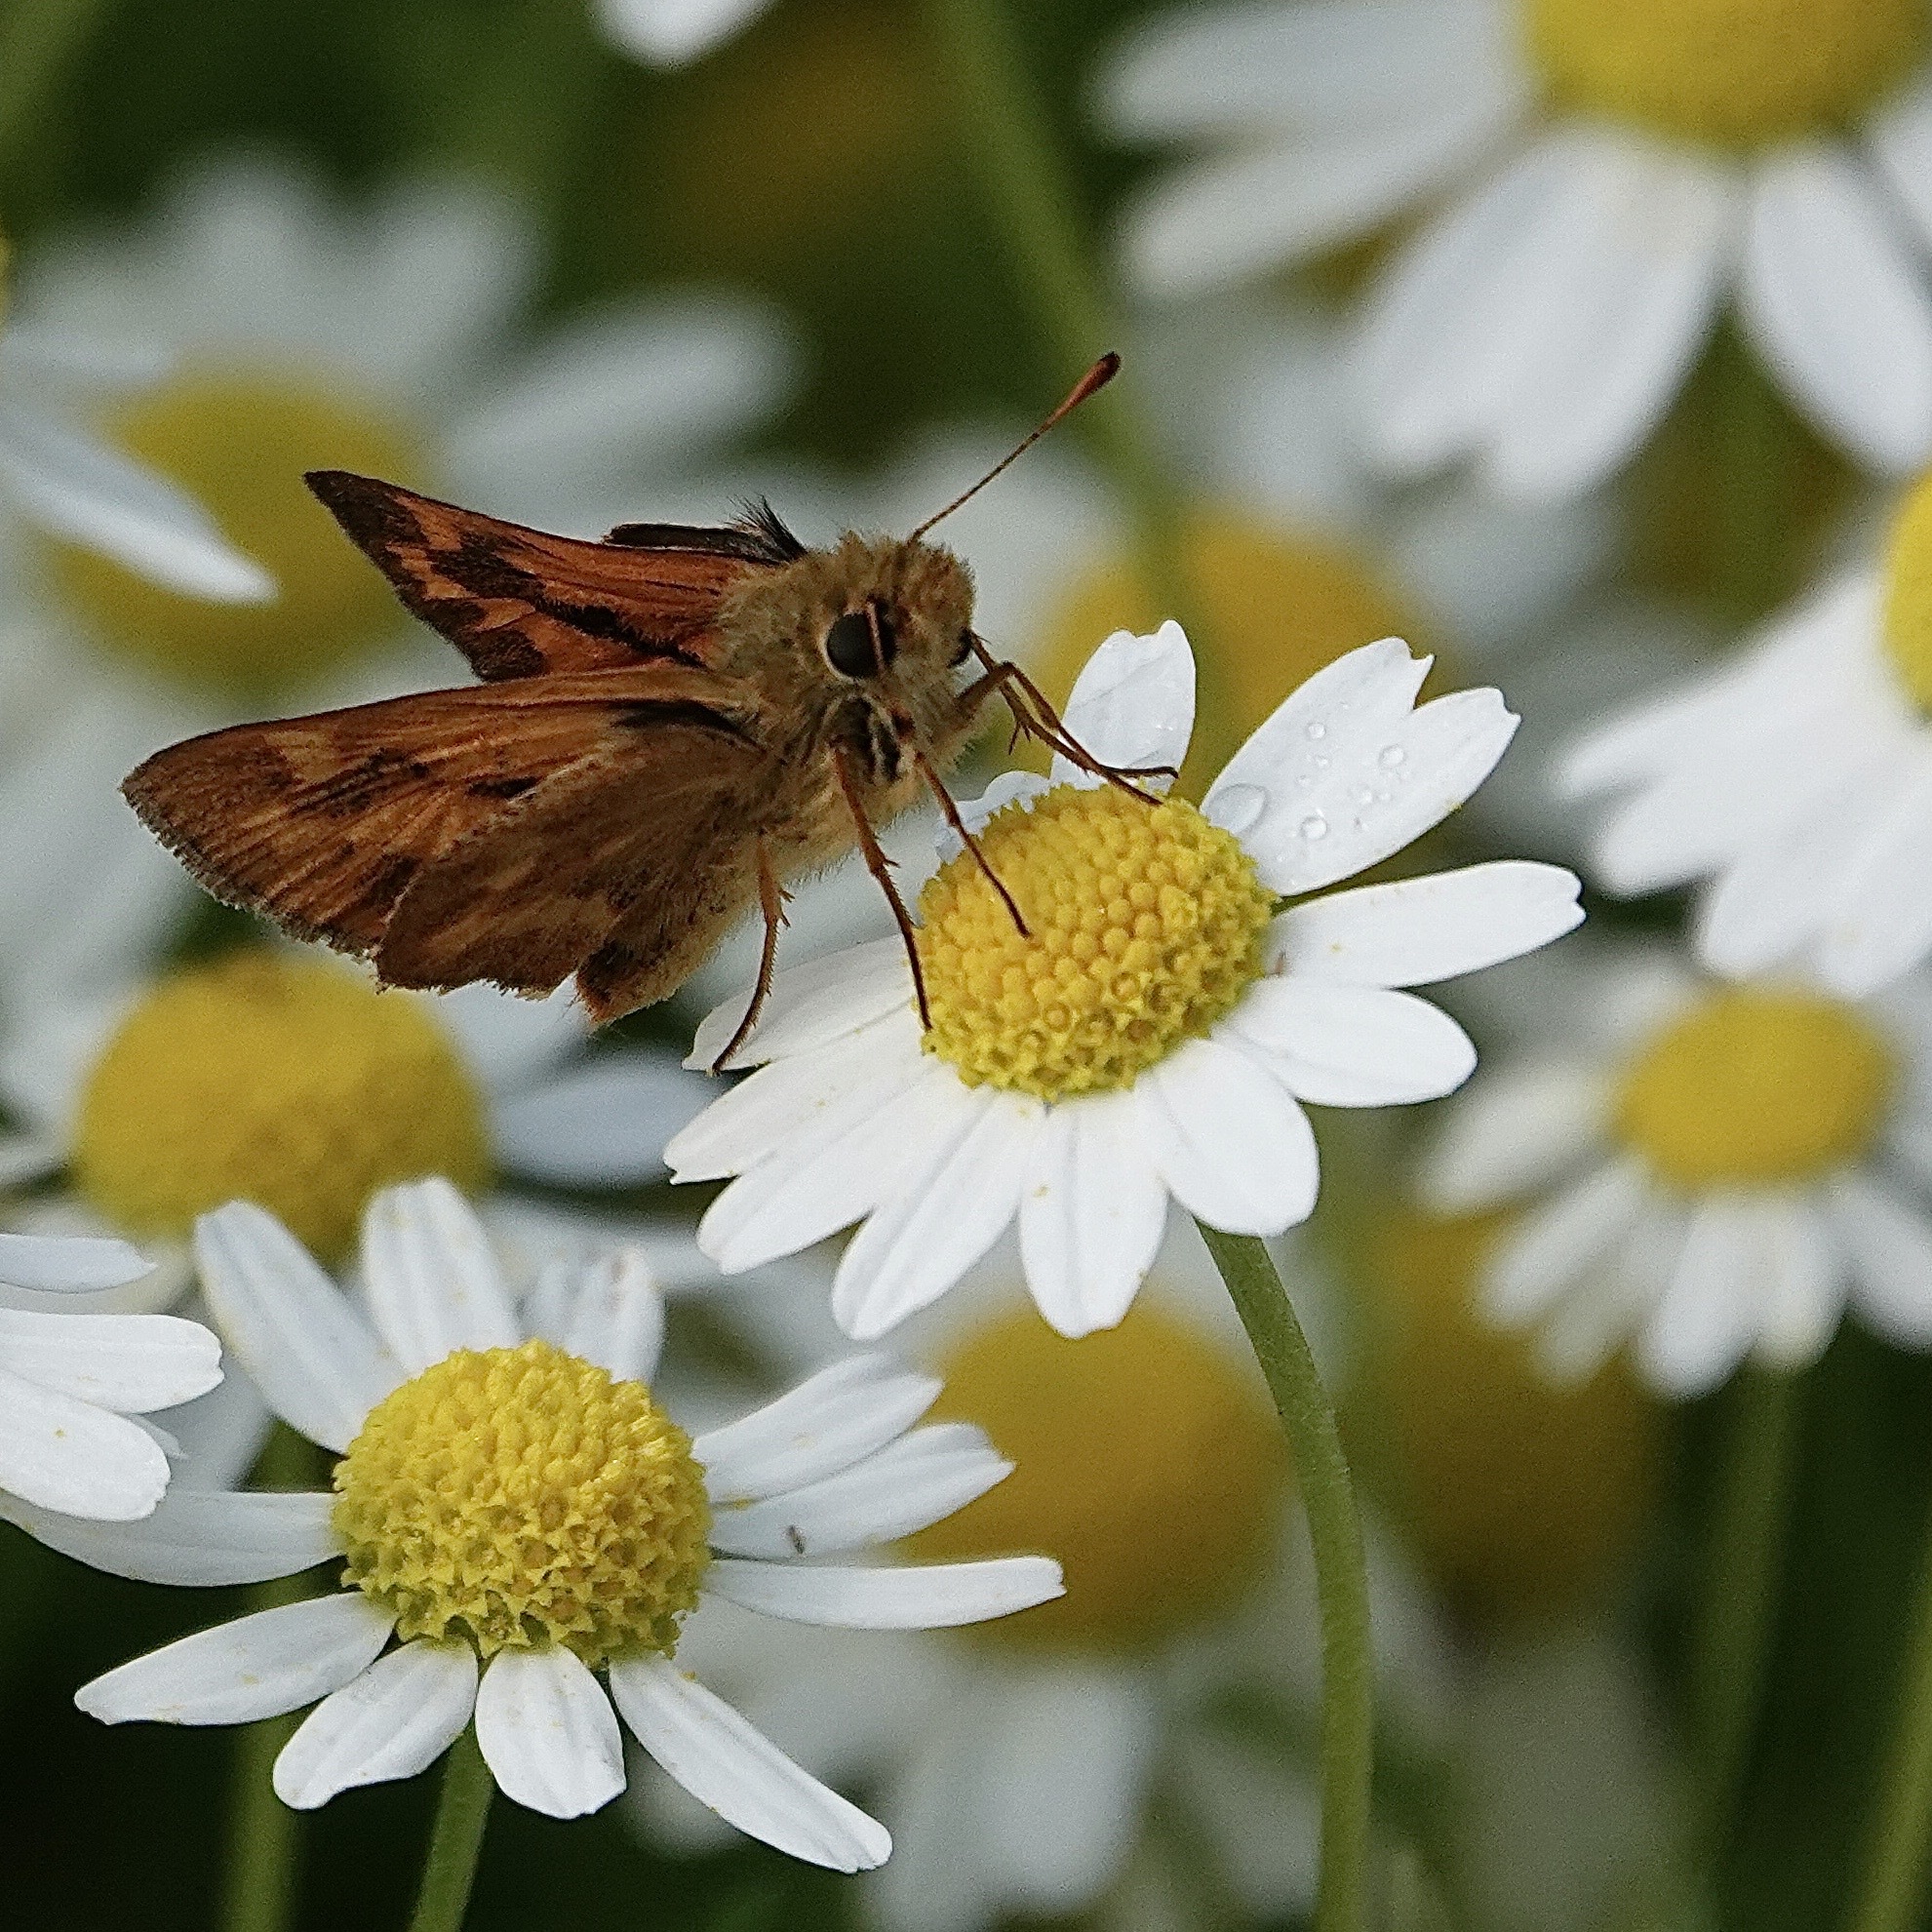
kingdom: Animalia
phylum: Arthropoda
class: Insecta
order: Lepidoptera
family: Hesperiidae
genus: Ochlodes
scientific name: Ochlodes sylvanoides
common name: Woodland skipper
